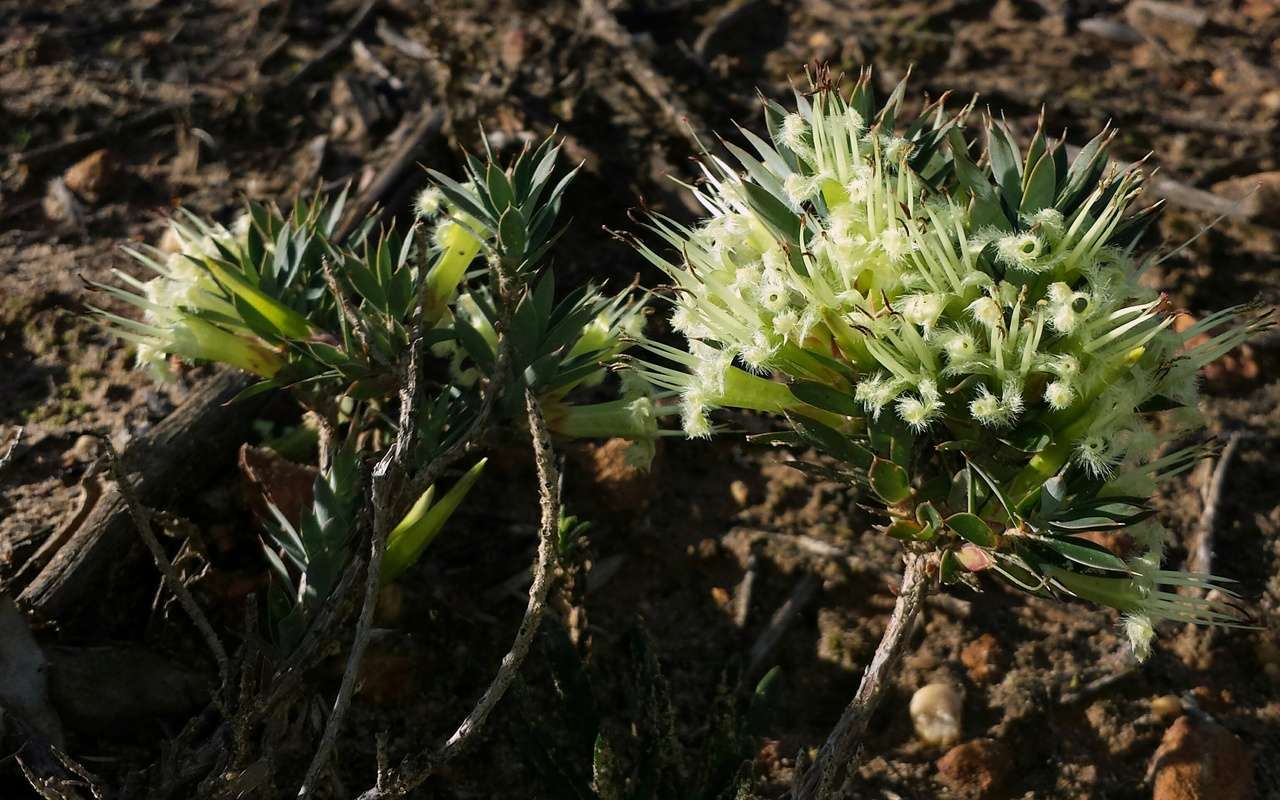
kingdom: Plantae
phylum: Tracheophyta
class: Magnoliopsida
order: Ericales
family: Ericaceae
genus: Styphelia
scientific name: Styphelia adscendens
